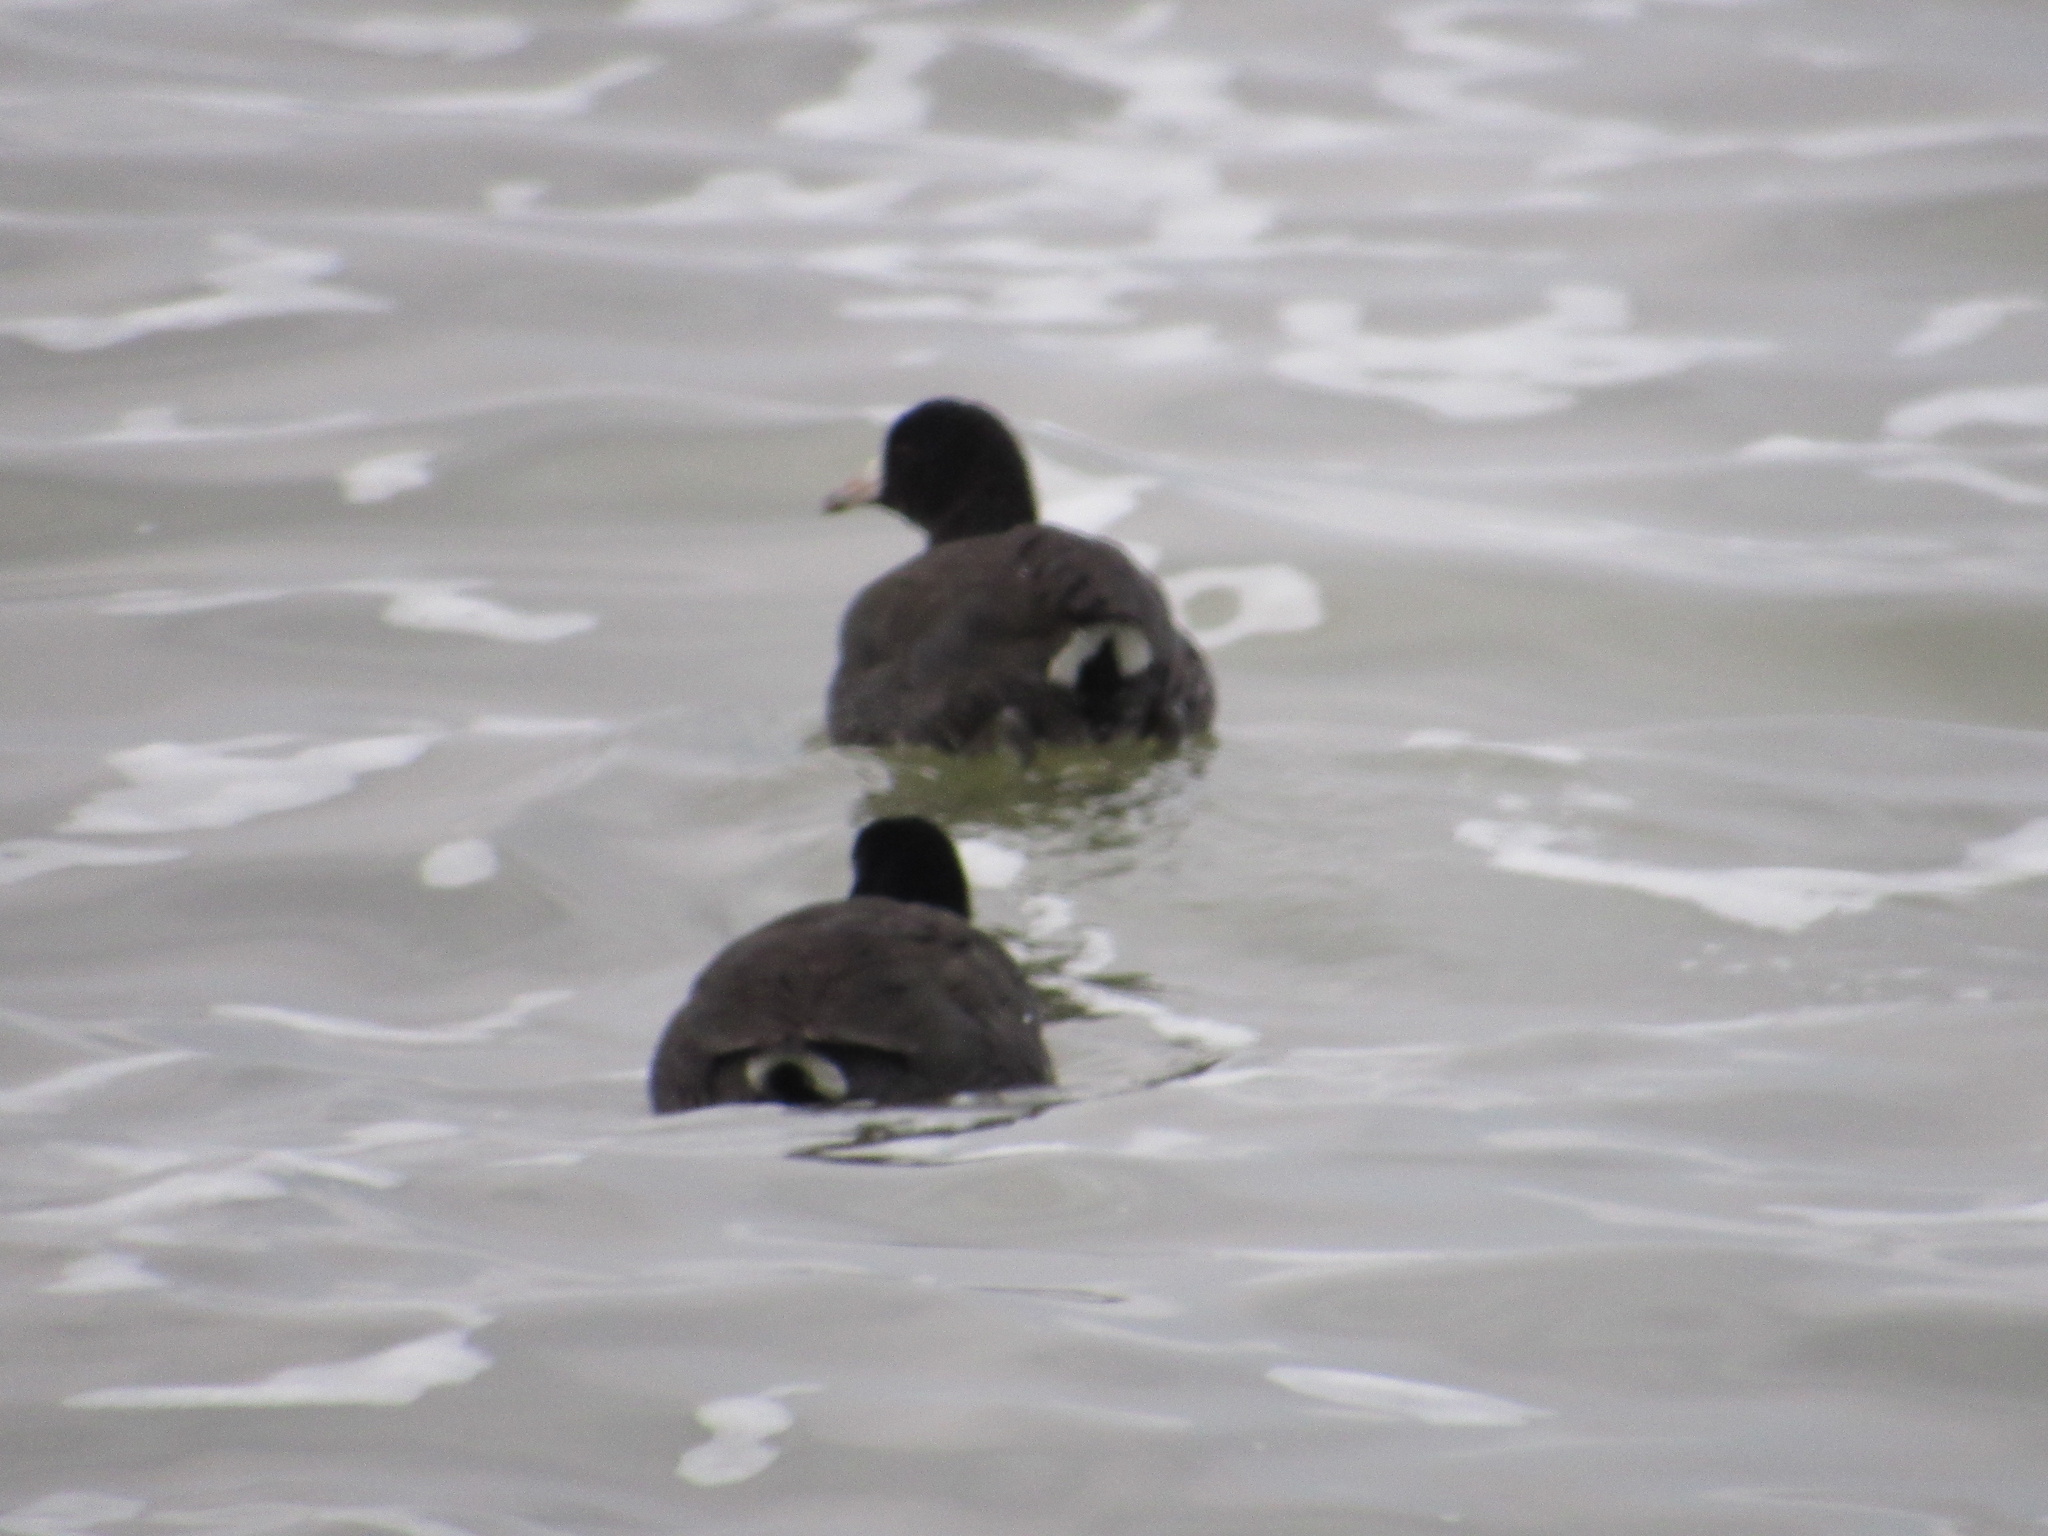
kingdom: Animalia
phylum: Chordata
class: Aves
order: Gruiformes
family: Rallidae
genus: Fulica
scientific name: Fulica americana
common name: American coot
